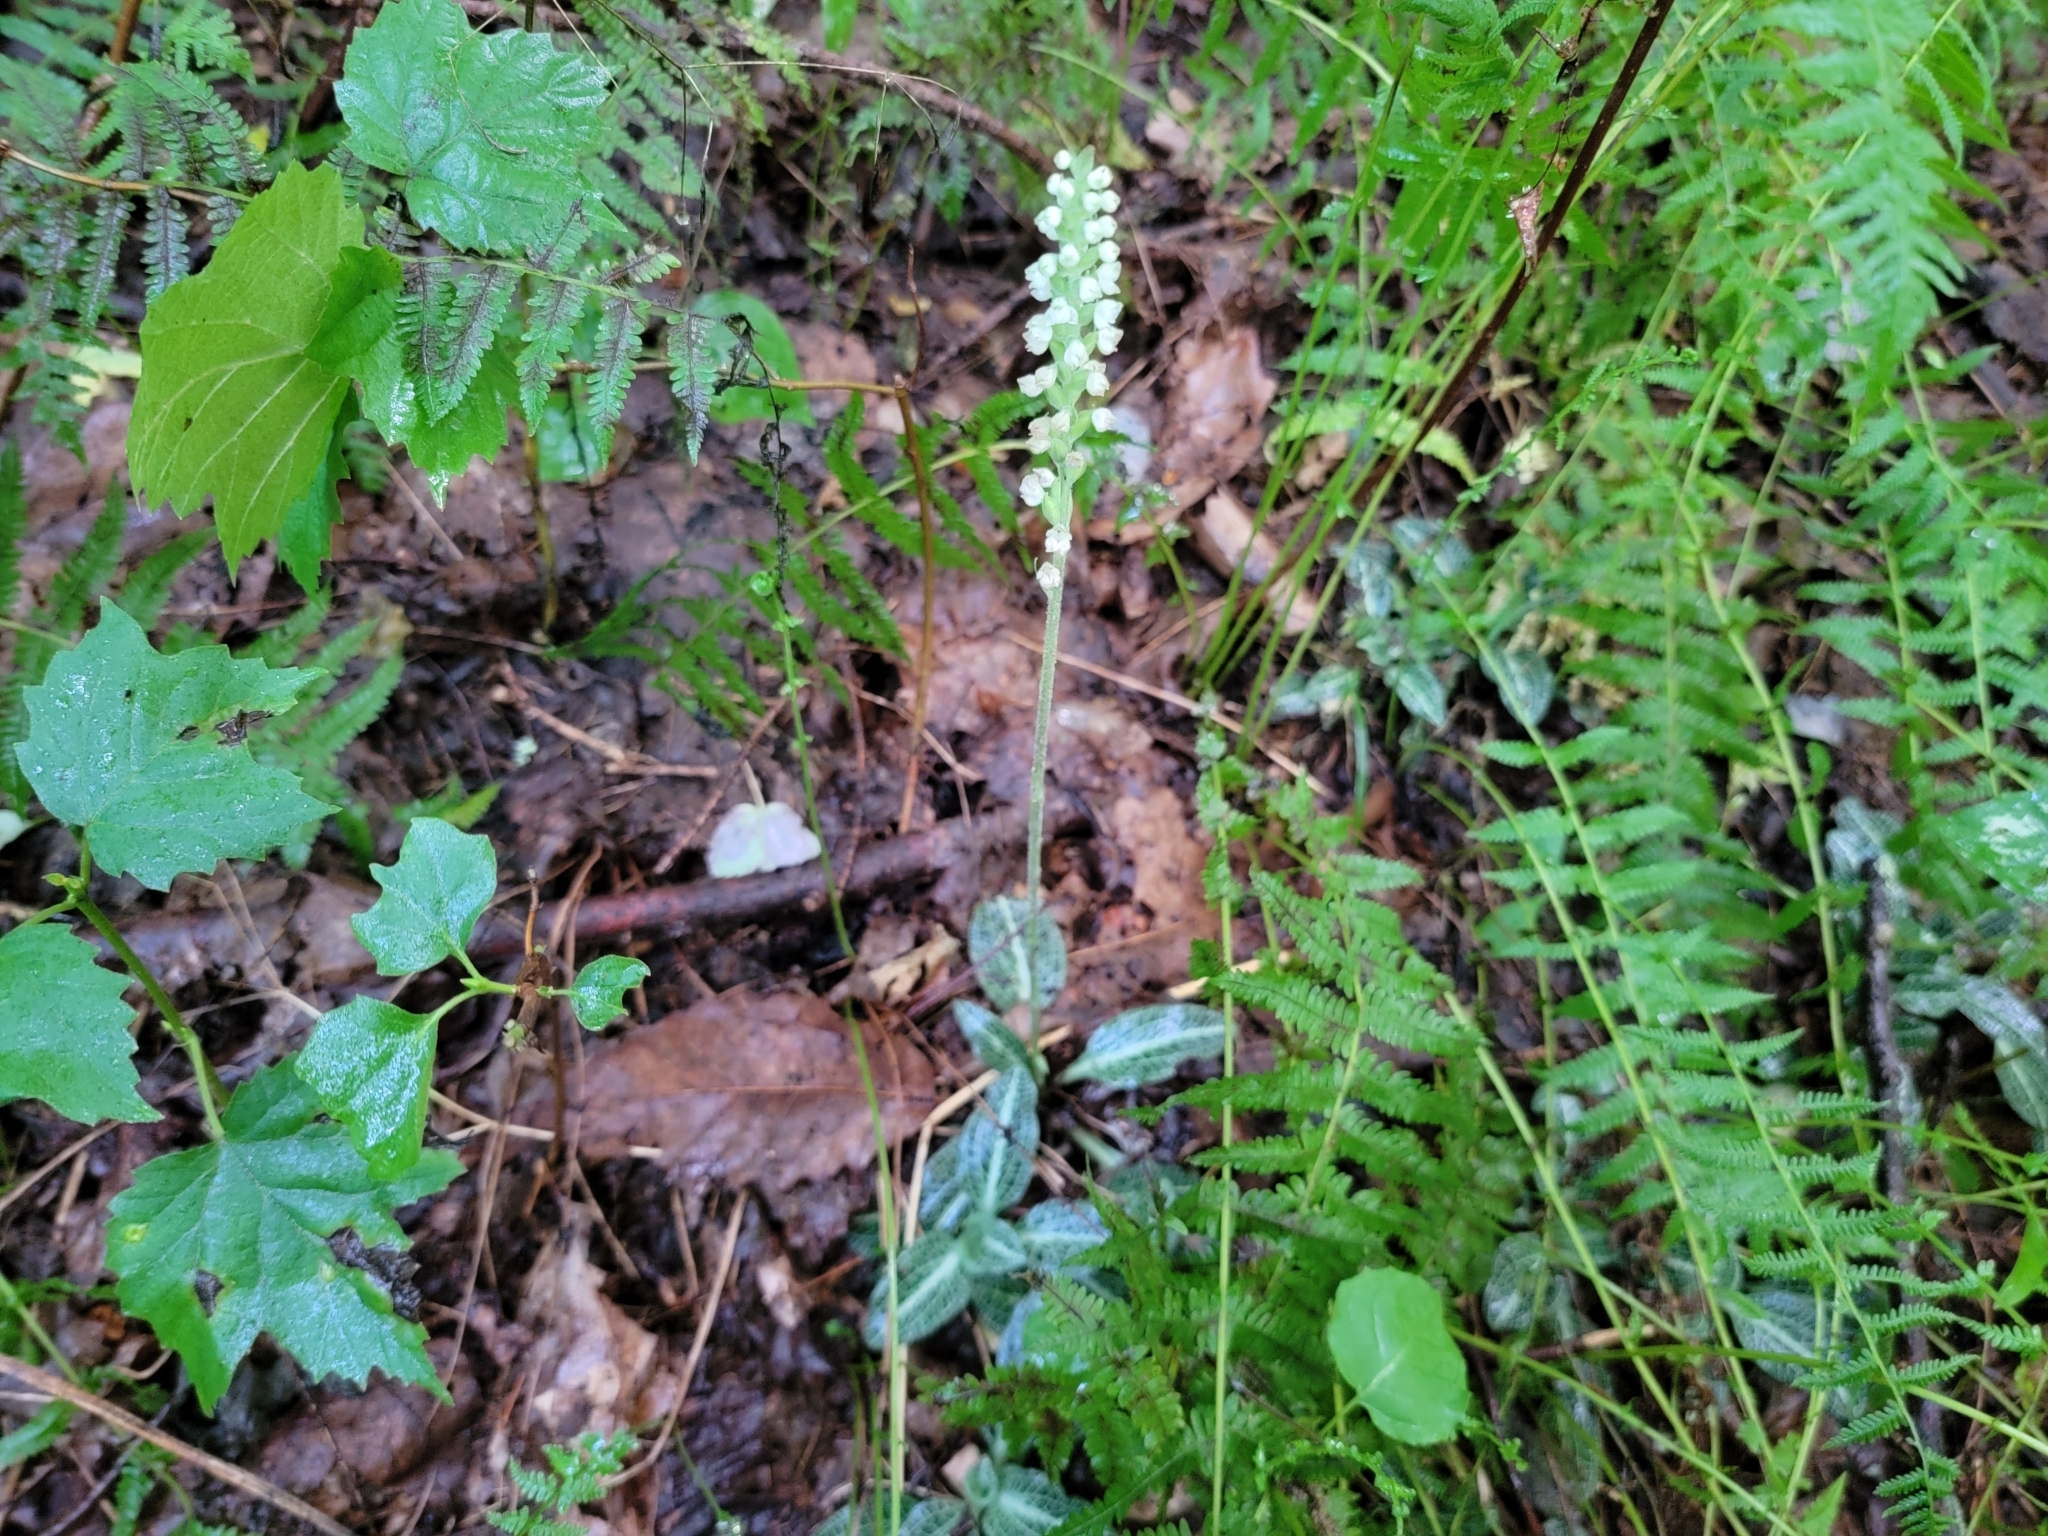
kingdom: Plantae
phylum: Tracheophyta
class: Liliopsida
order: Asparagales
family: Orchidaceae
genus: Goodyera
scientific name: Goodyera pubescens
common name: Downy rattlesnake-plantain
